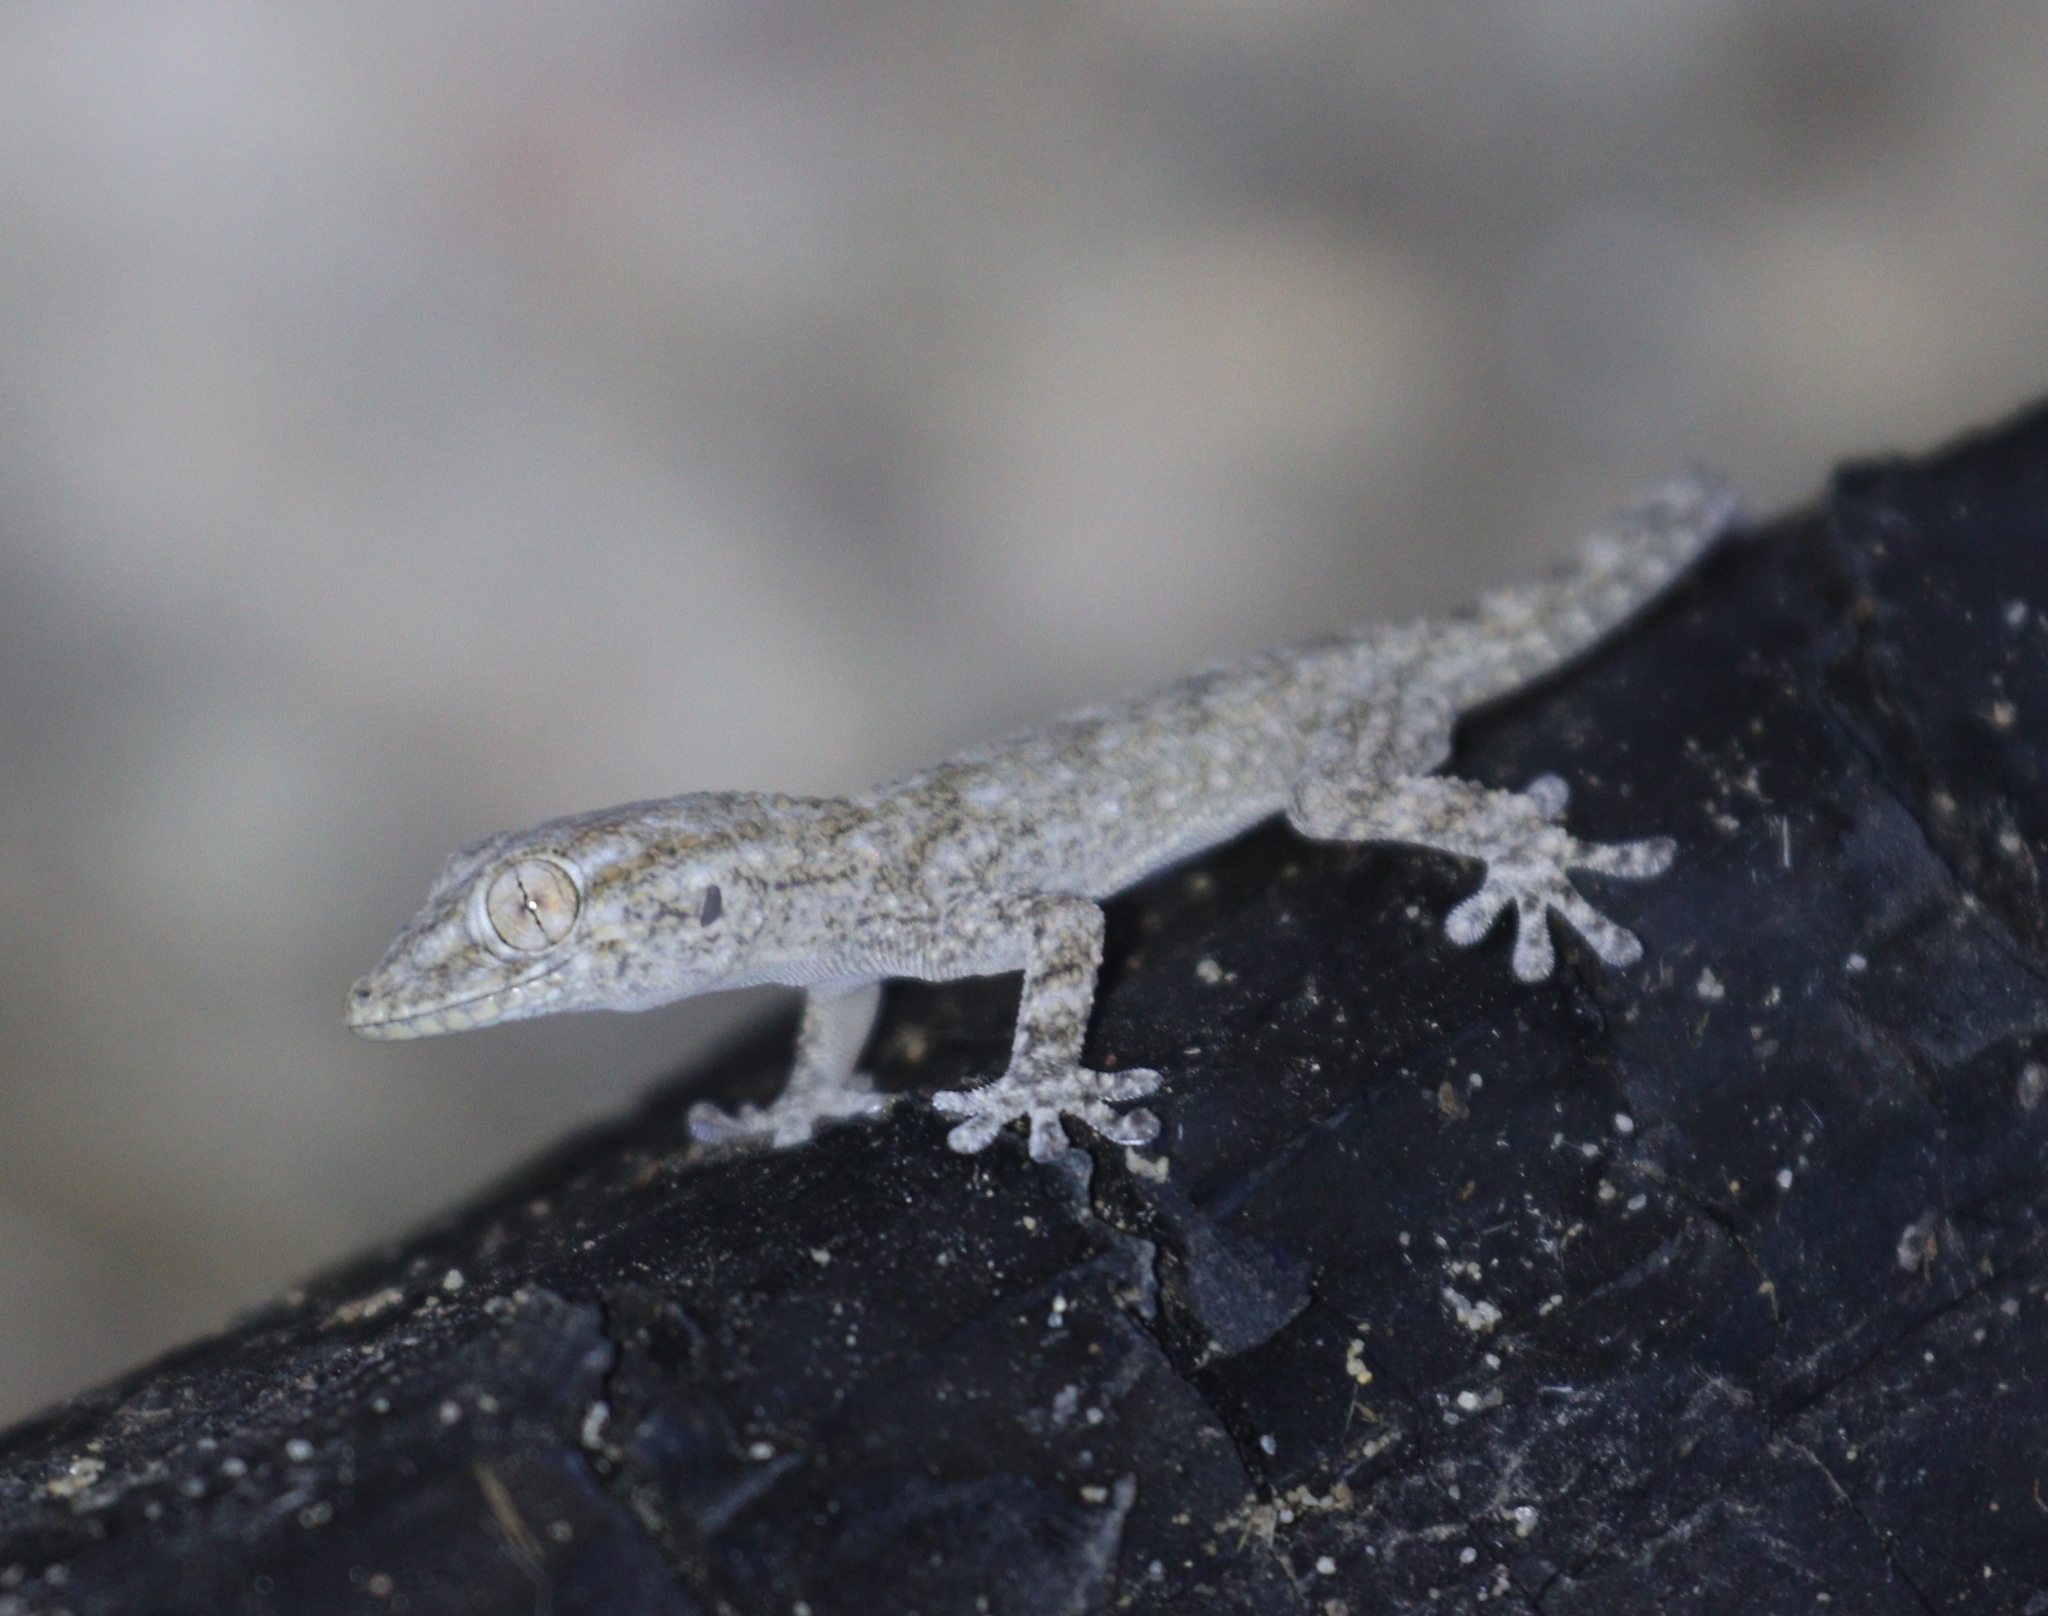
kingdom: Animalia
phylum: Chordata
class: Squamata
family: Phyllodactylidae
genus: Tarentola
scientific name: Tarentola mauritanica
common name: Moorish gecko
